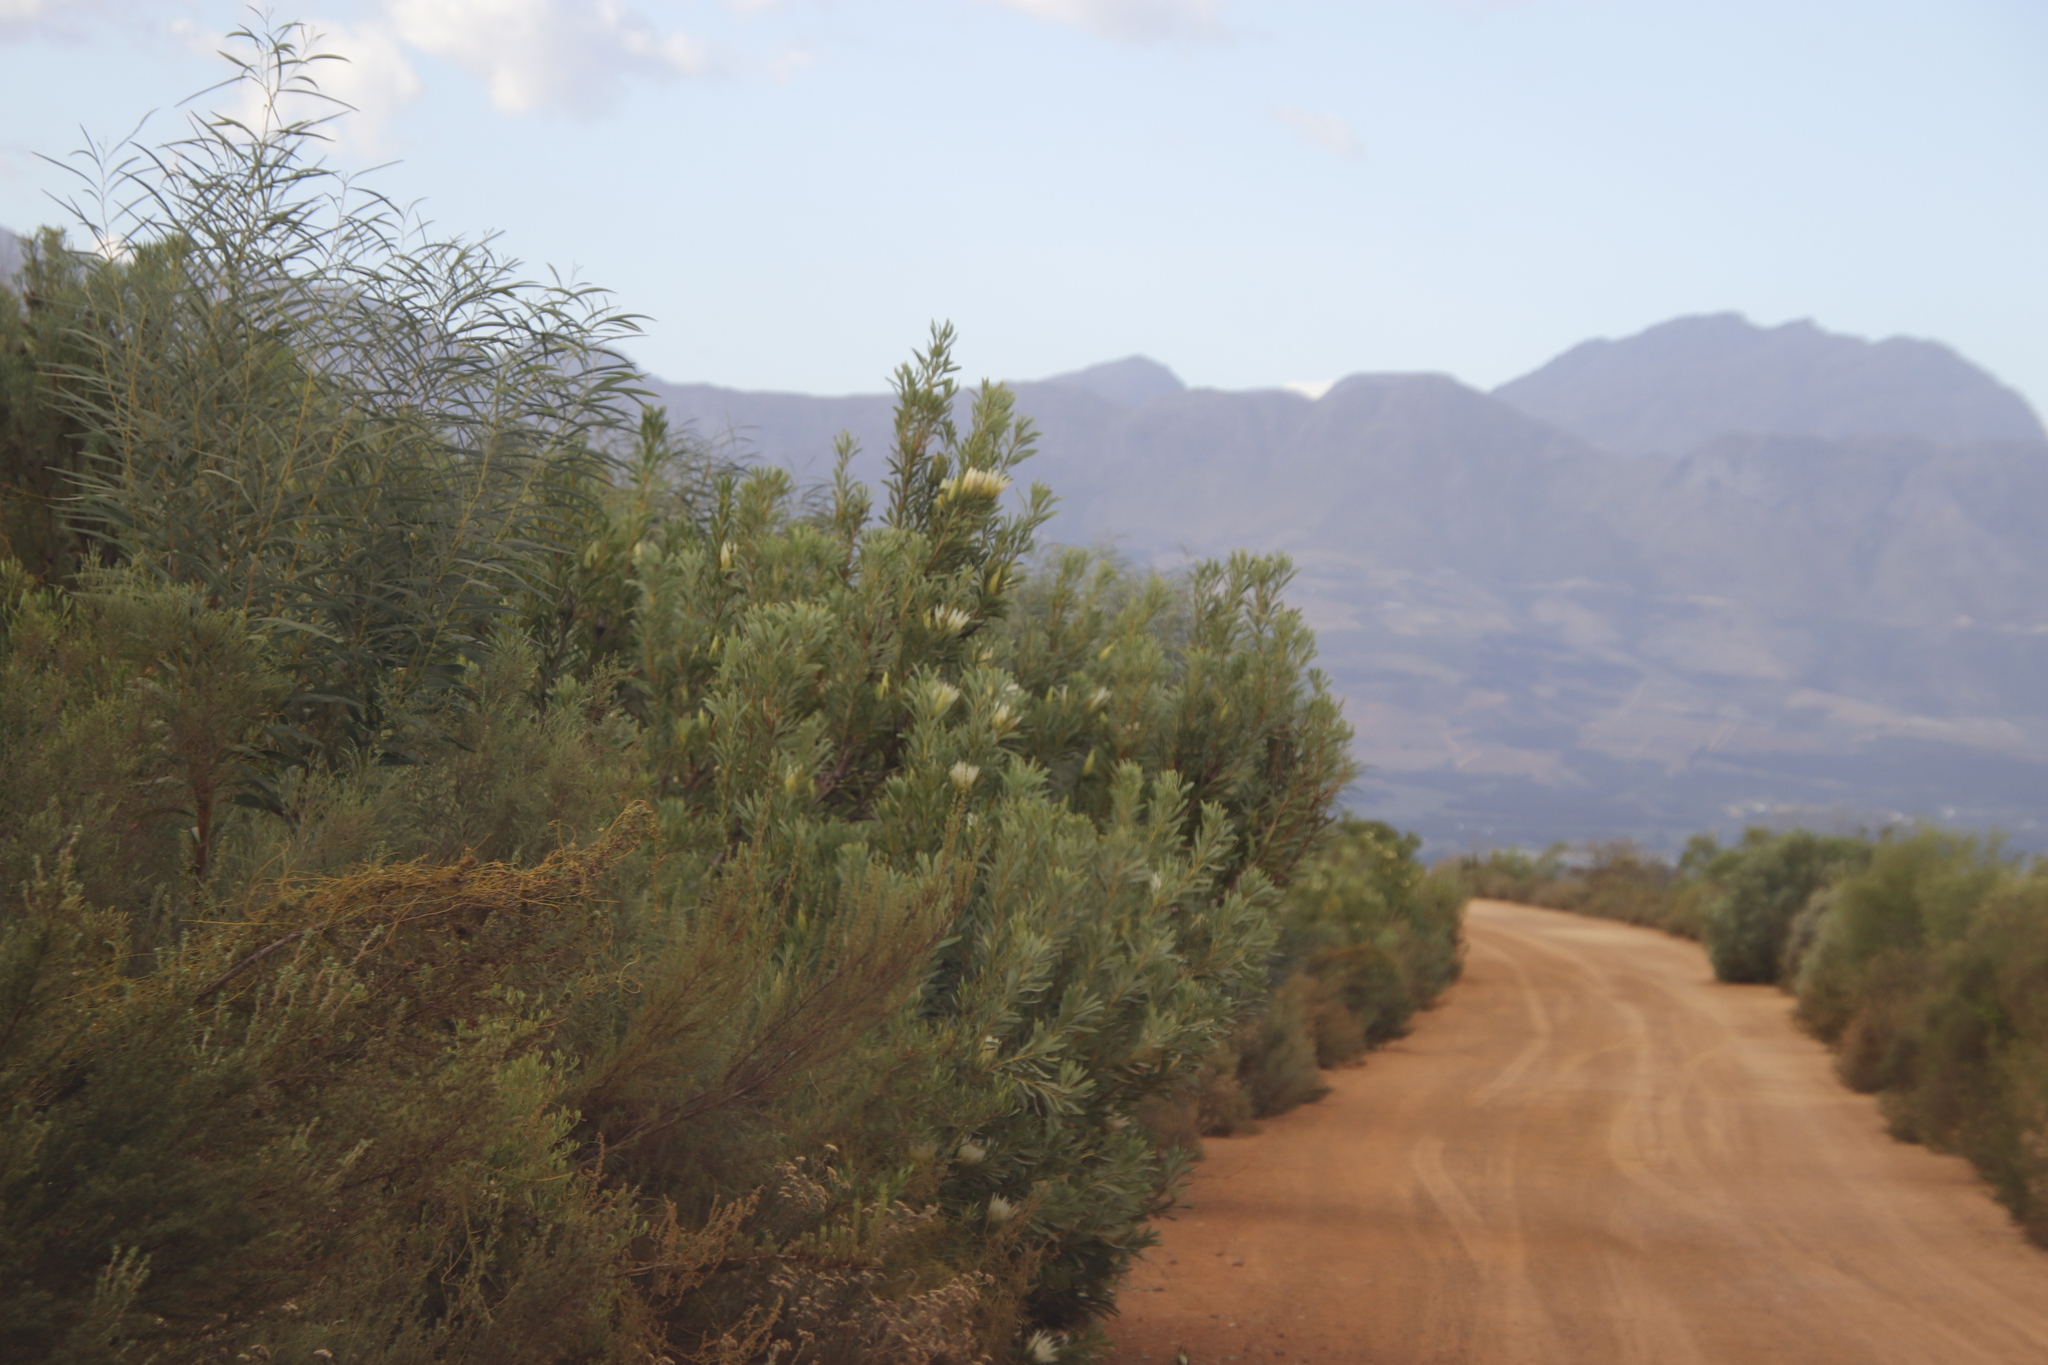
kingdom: Plantae
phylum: Tracheophyta
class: Magnoliopsida
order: Proteales
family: Proteaceae
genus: Protea
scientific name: Protea repens
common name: Sugarbush
